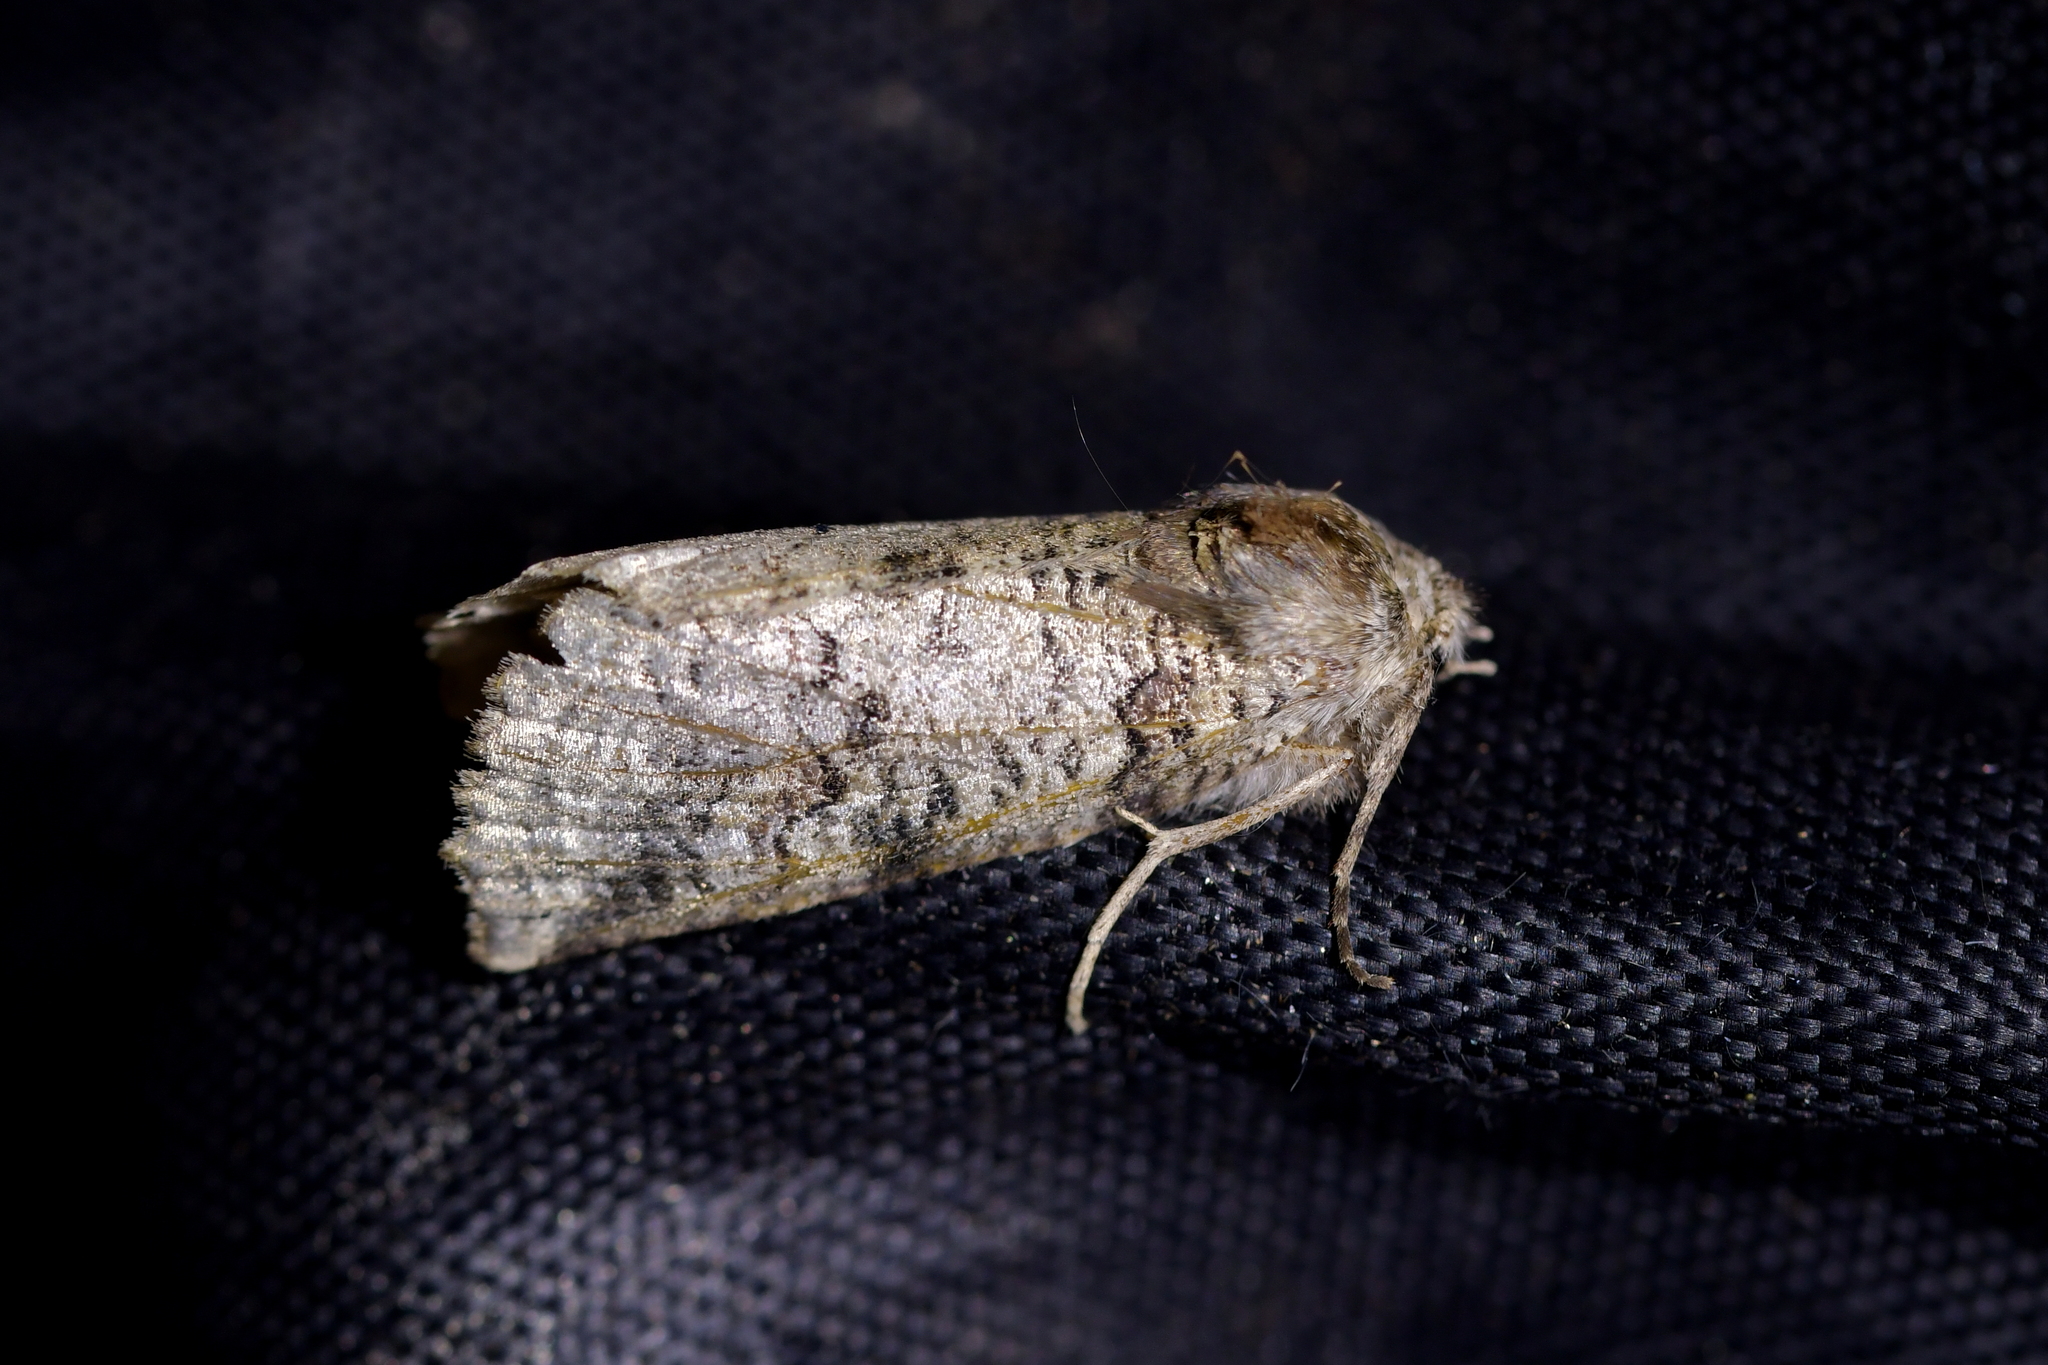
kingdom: Animalia
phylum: Arthropoda
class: Insecta
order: Lepidoptera
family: Geometridae
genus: Declana
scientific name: Declana
